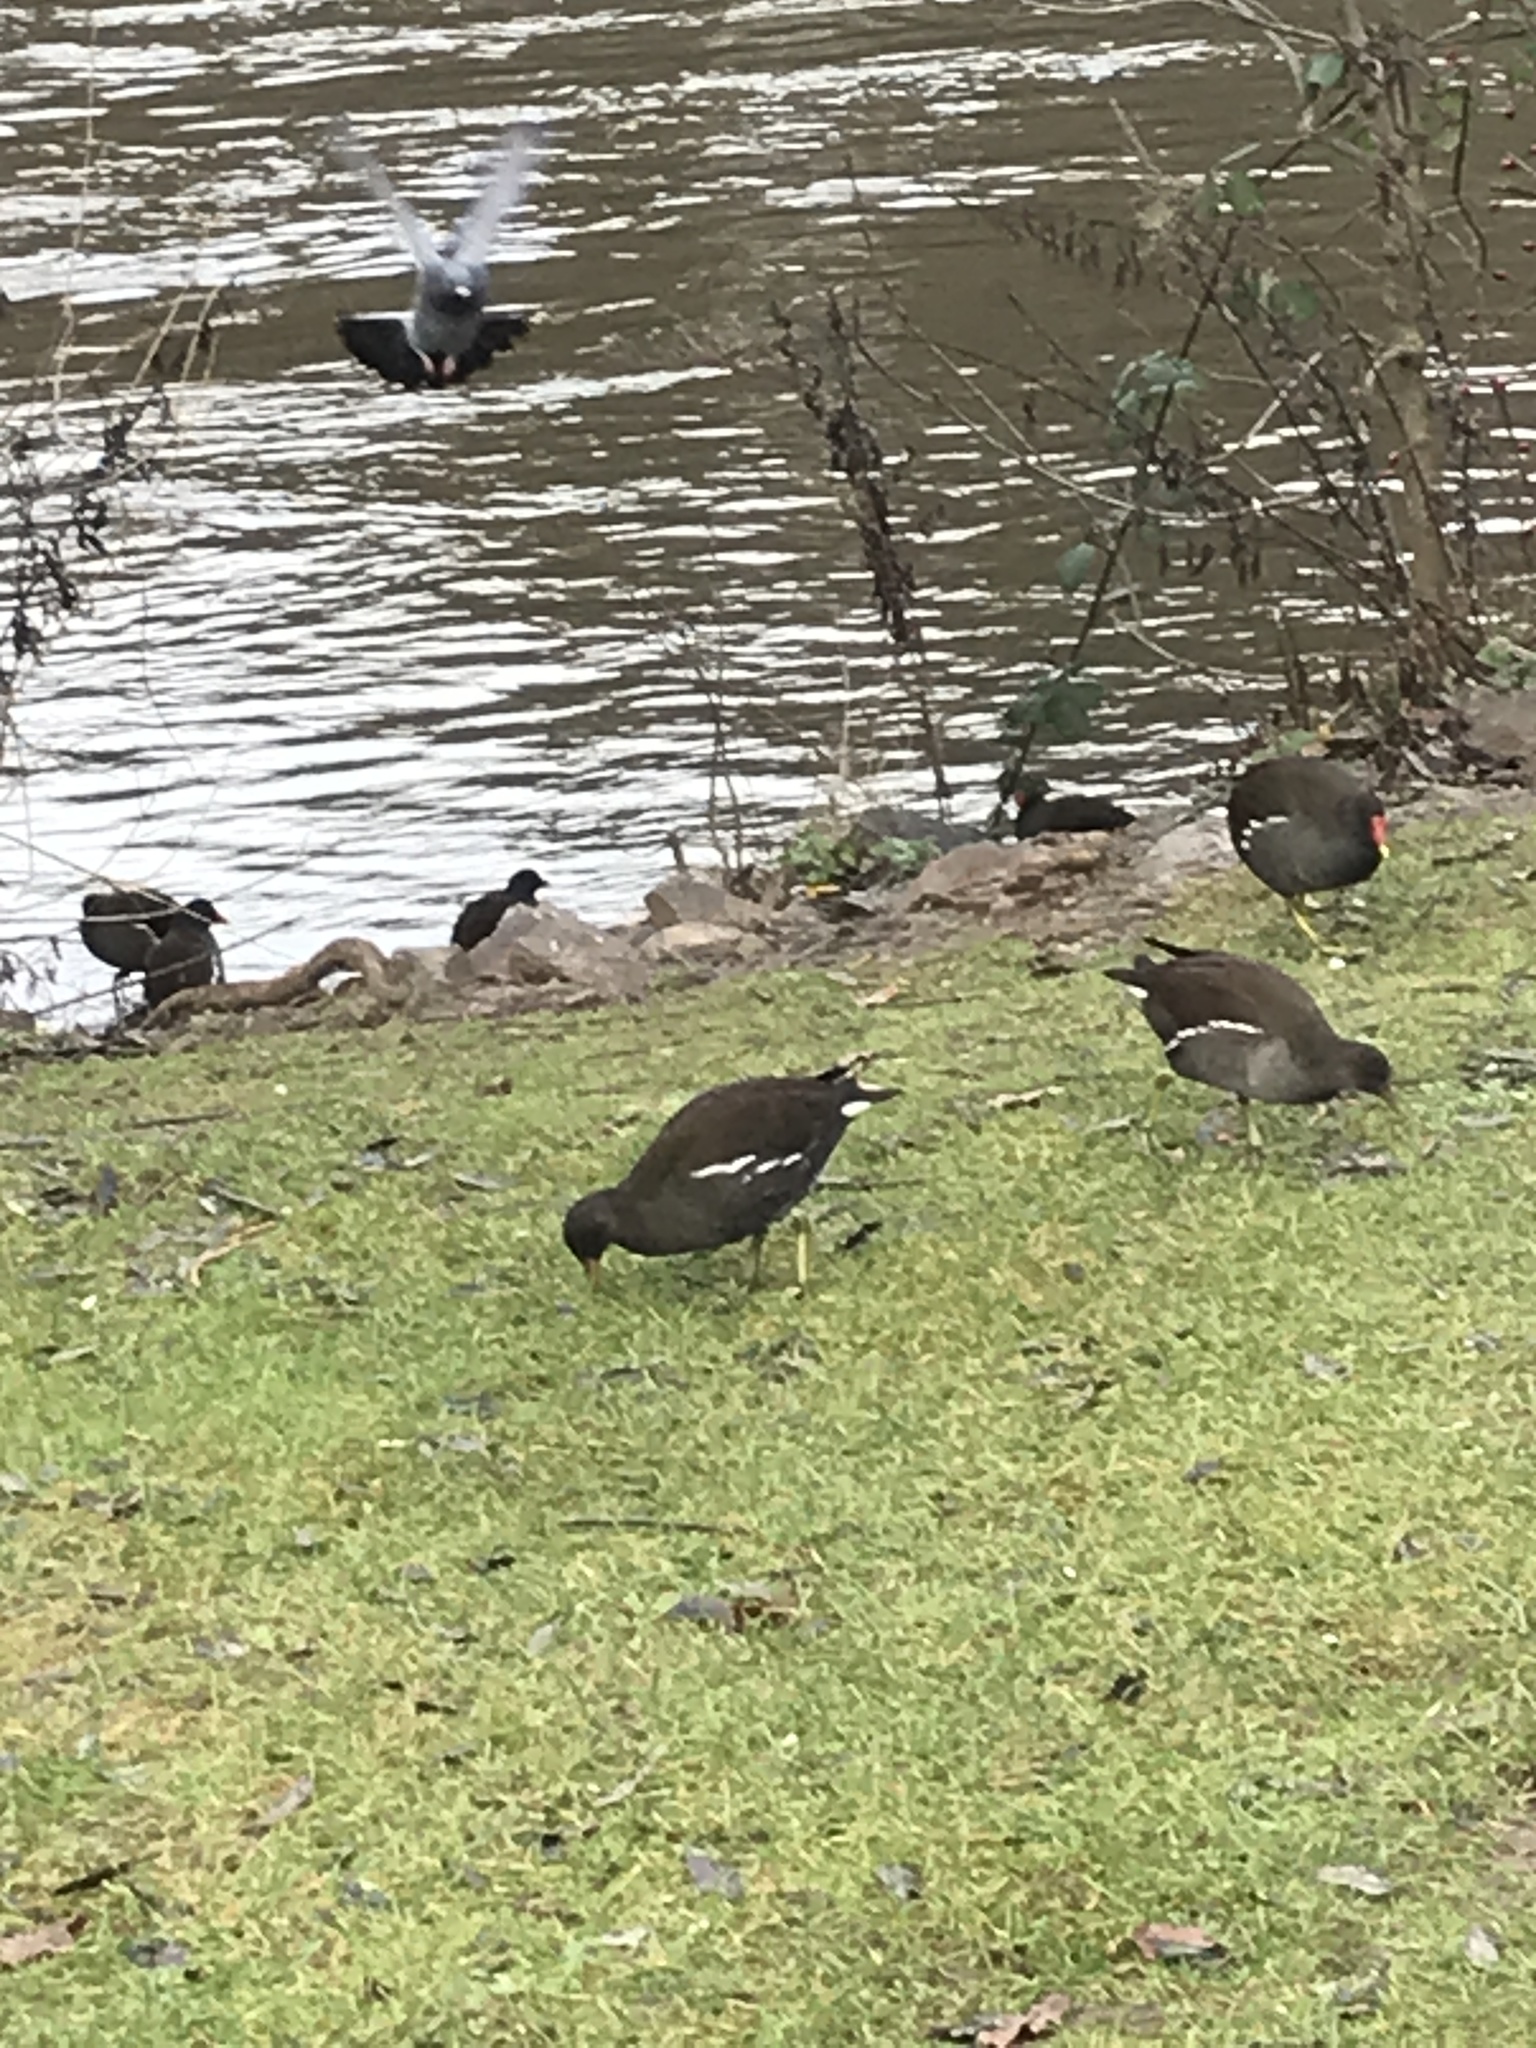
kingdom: Animalia
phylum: Chordata
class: Aves
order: Gruiformes
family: Rallidae
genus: Gallinula
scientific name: Gallinula chloropus
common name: Common moorhen
